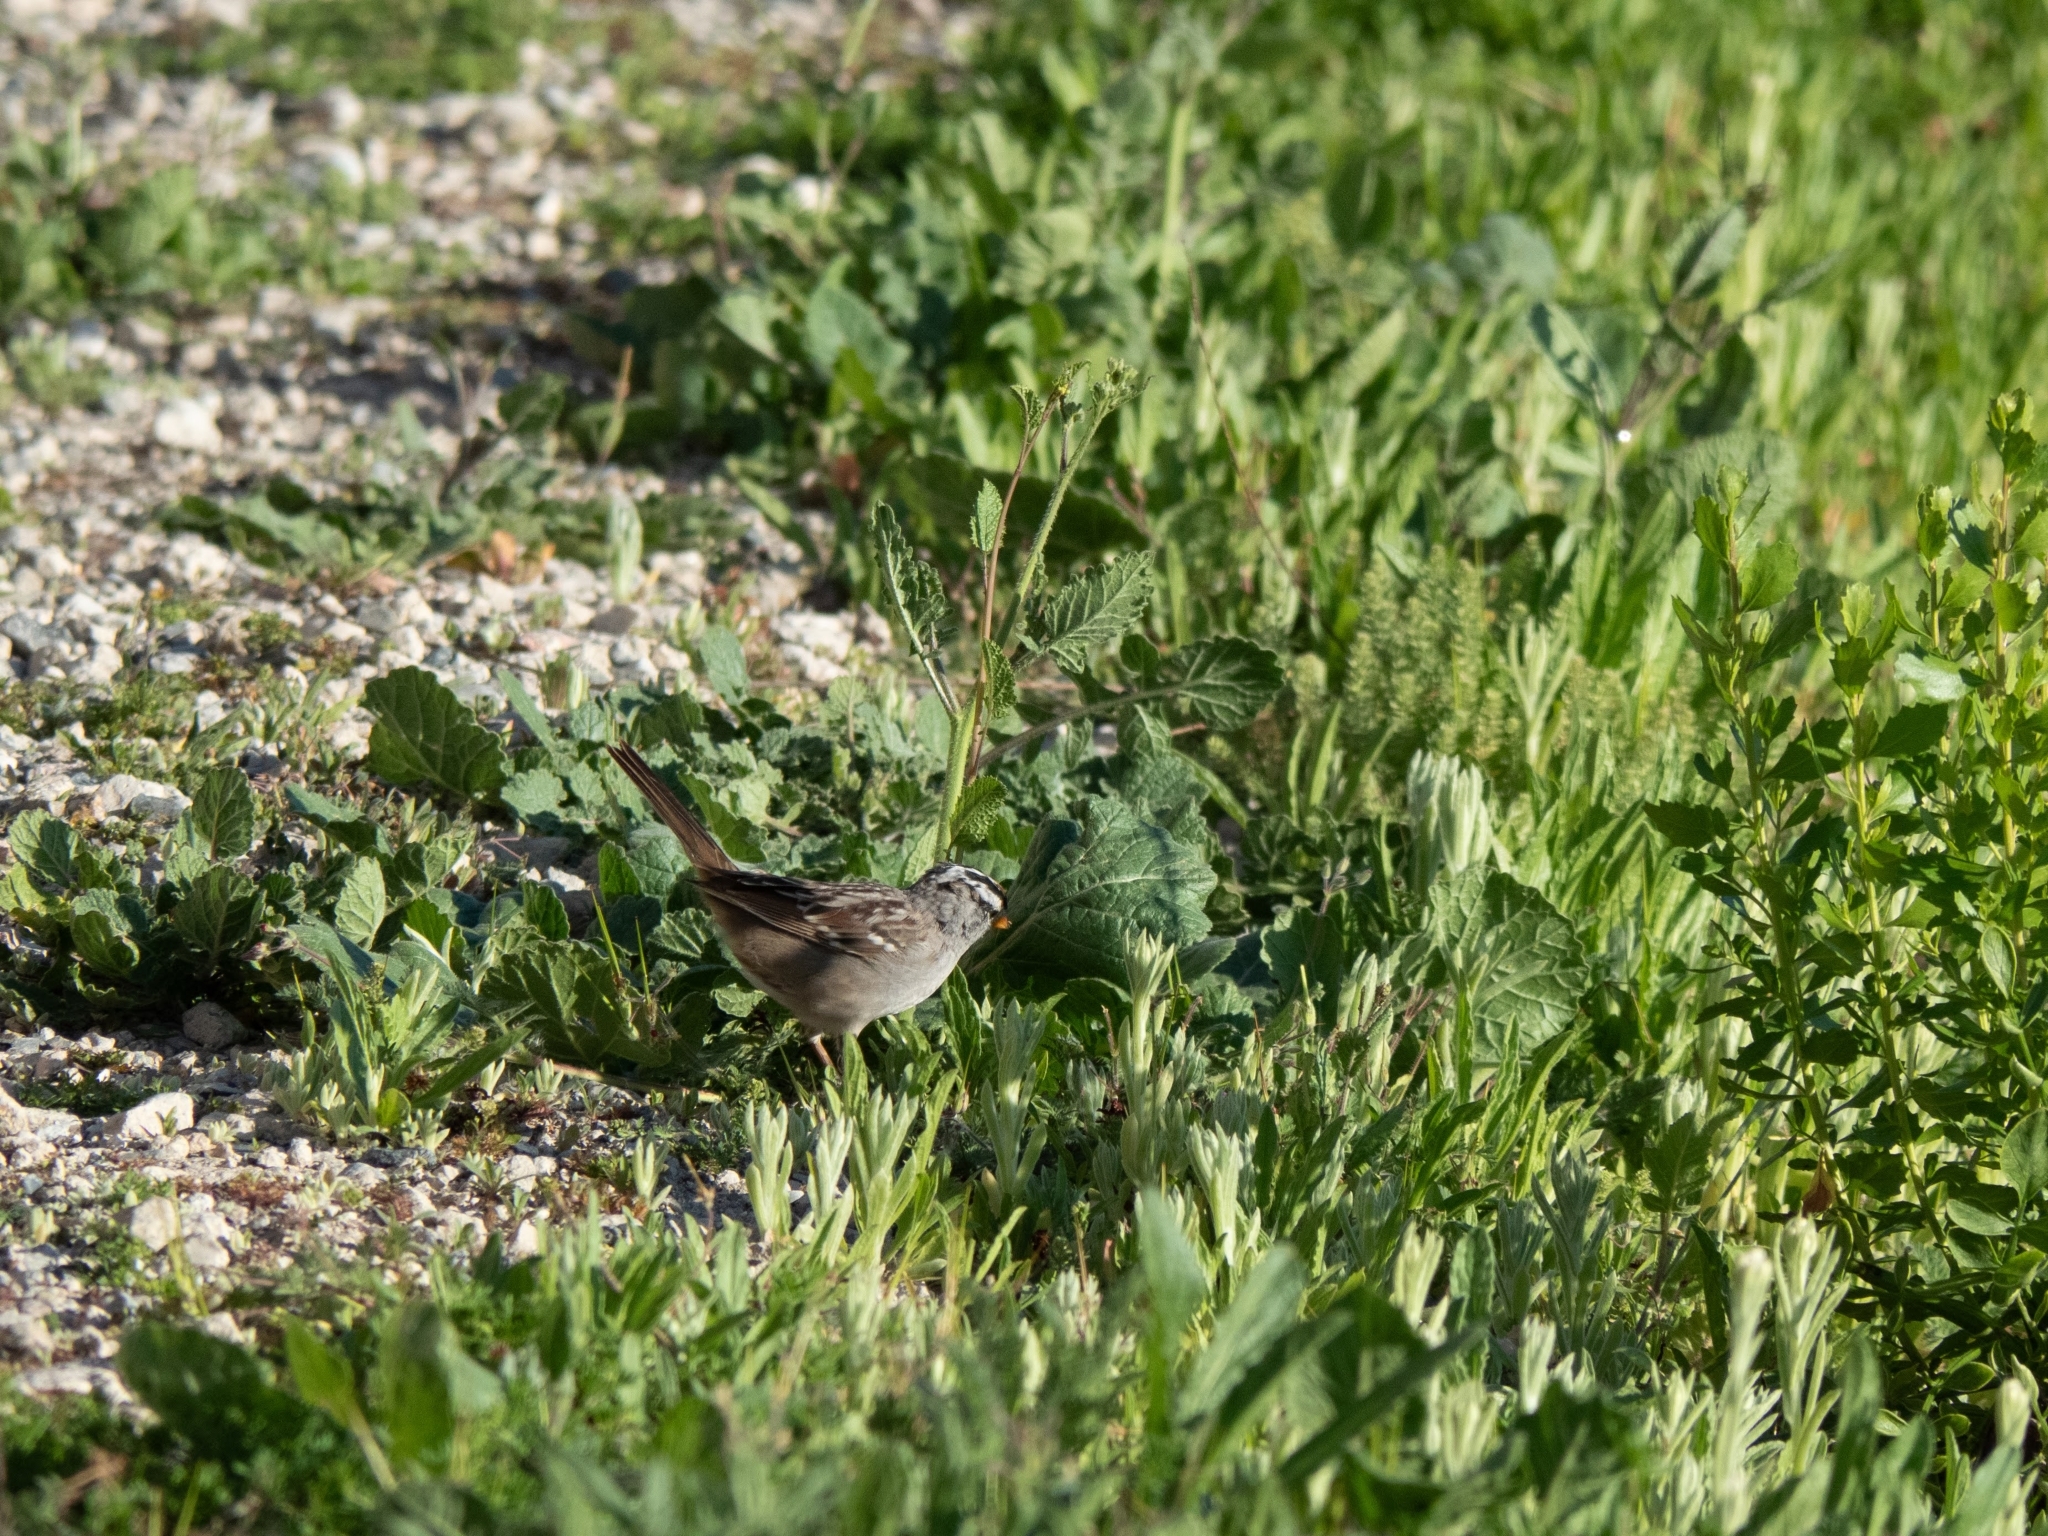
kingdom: Animalia
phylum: Chordata
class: Aves
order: Passeriformes
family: Passerellidae
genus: Zonotrichia
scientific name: Zonotrichia leucophrys
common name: White-crowned sparrow
